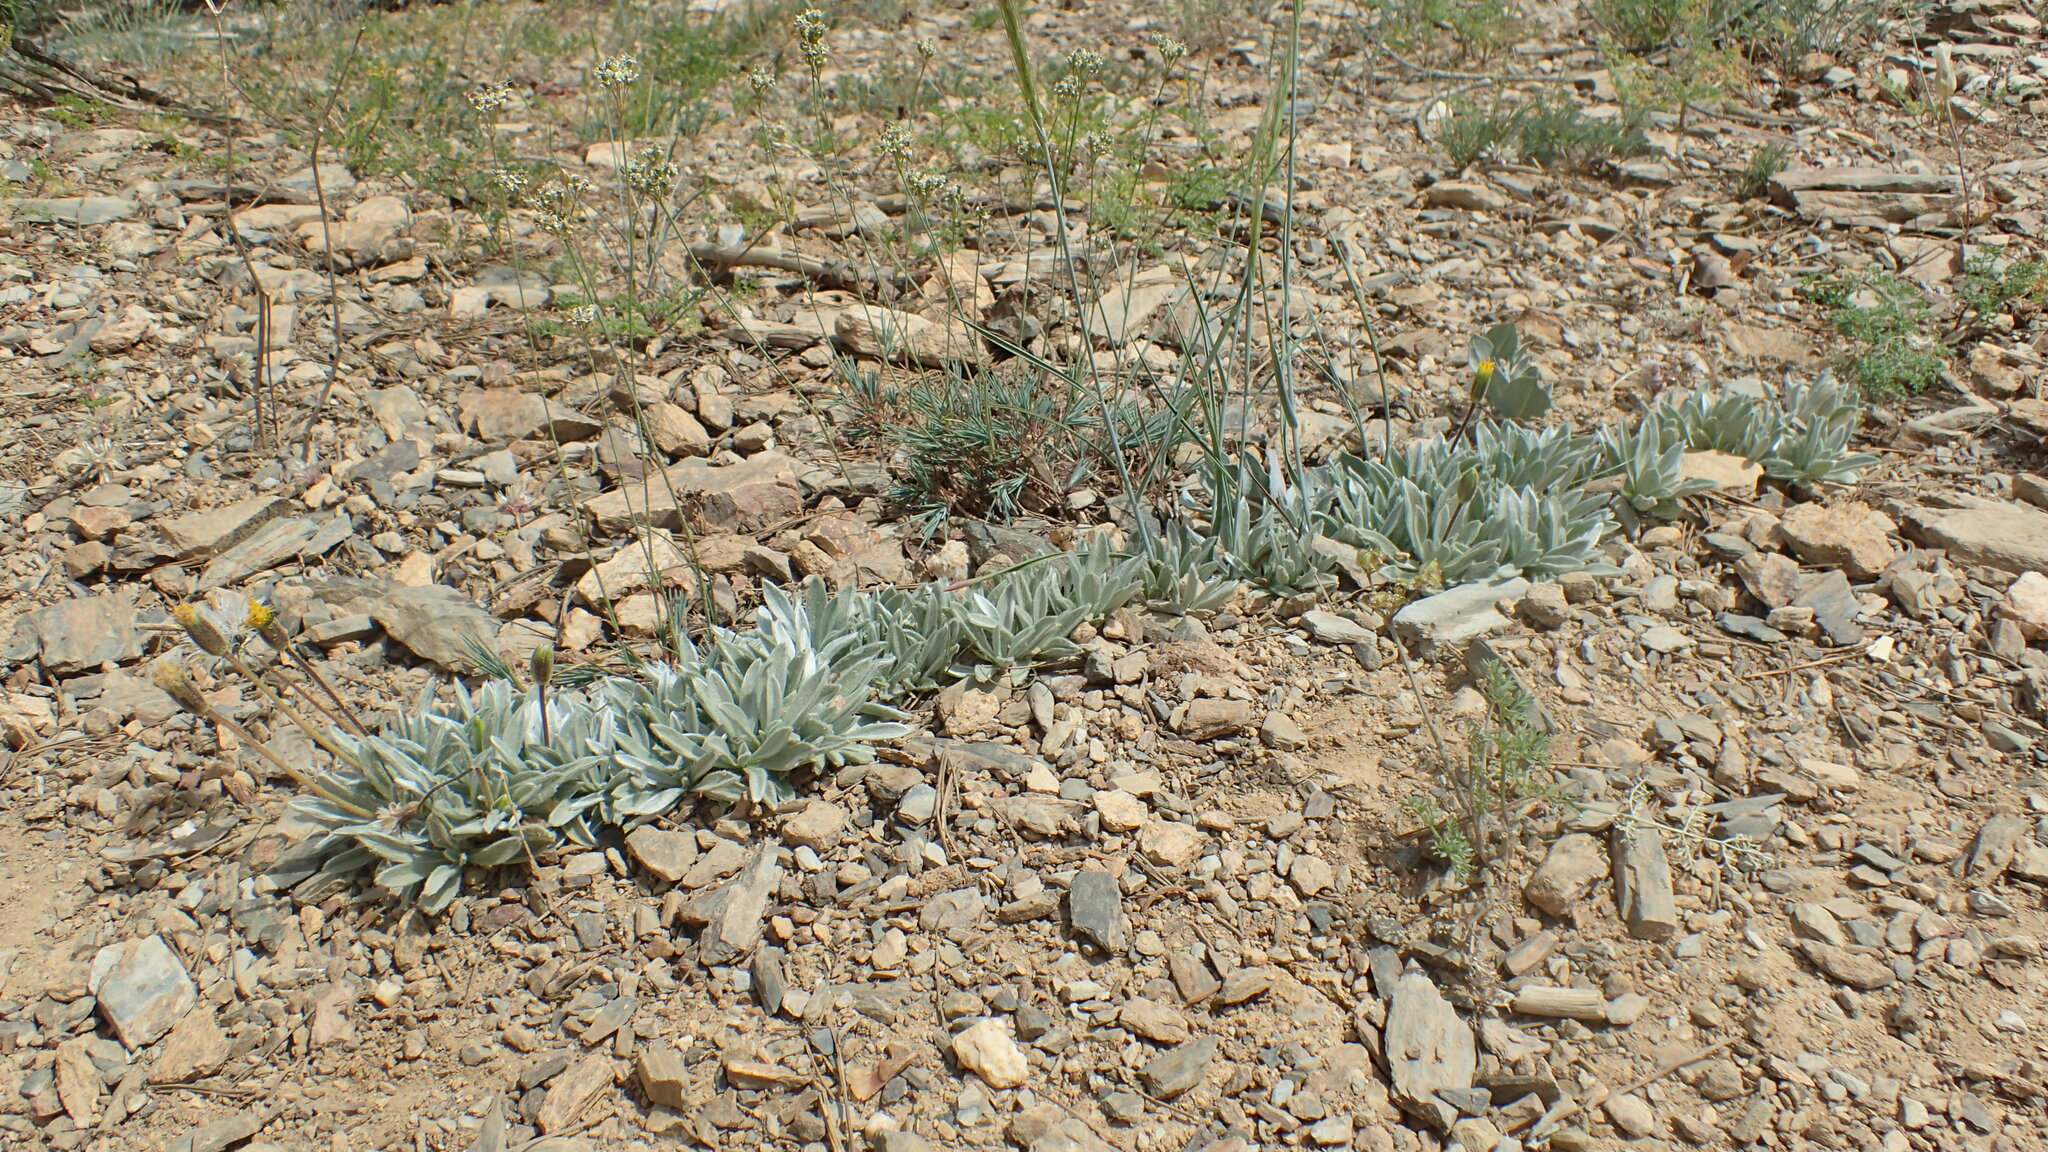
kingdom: Plantae
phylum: Tracheophyta
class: Magnoliopsida
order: Asterales
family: Asteraceae
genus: Raillardella
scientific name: Raillardella argentea
